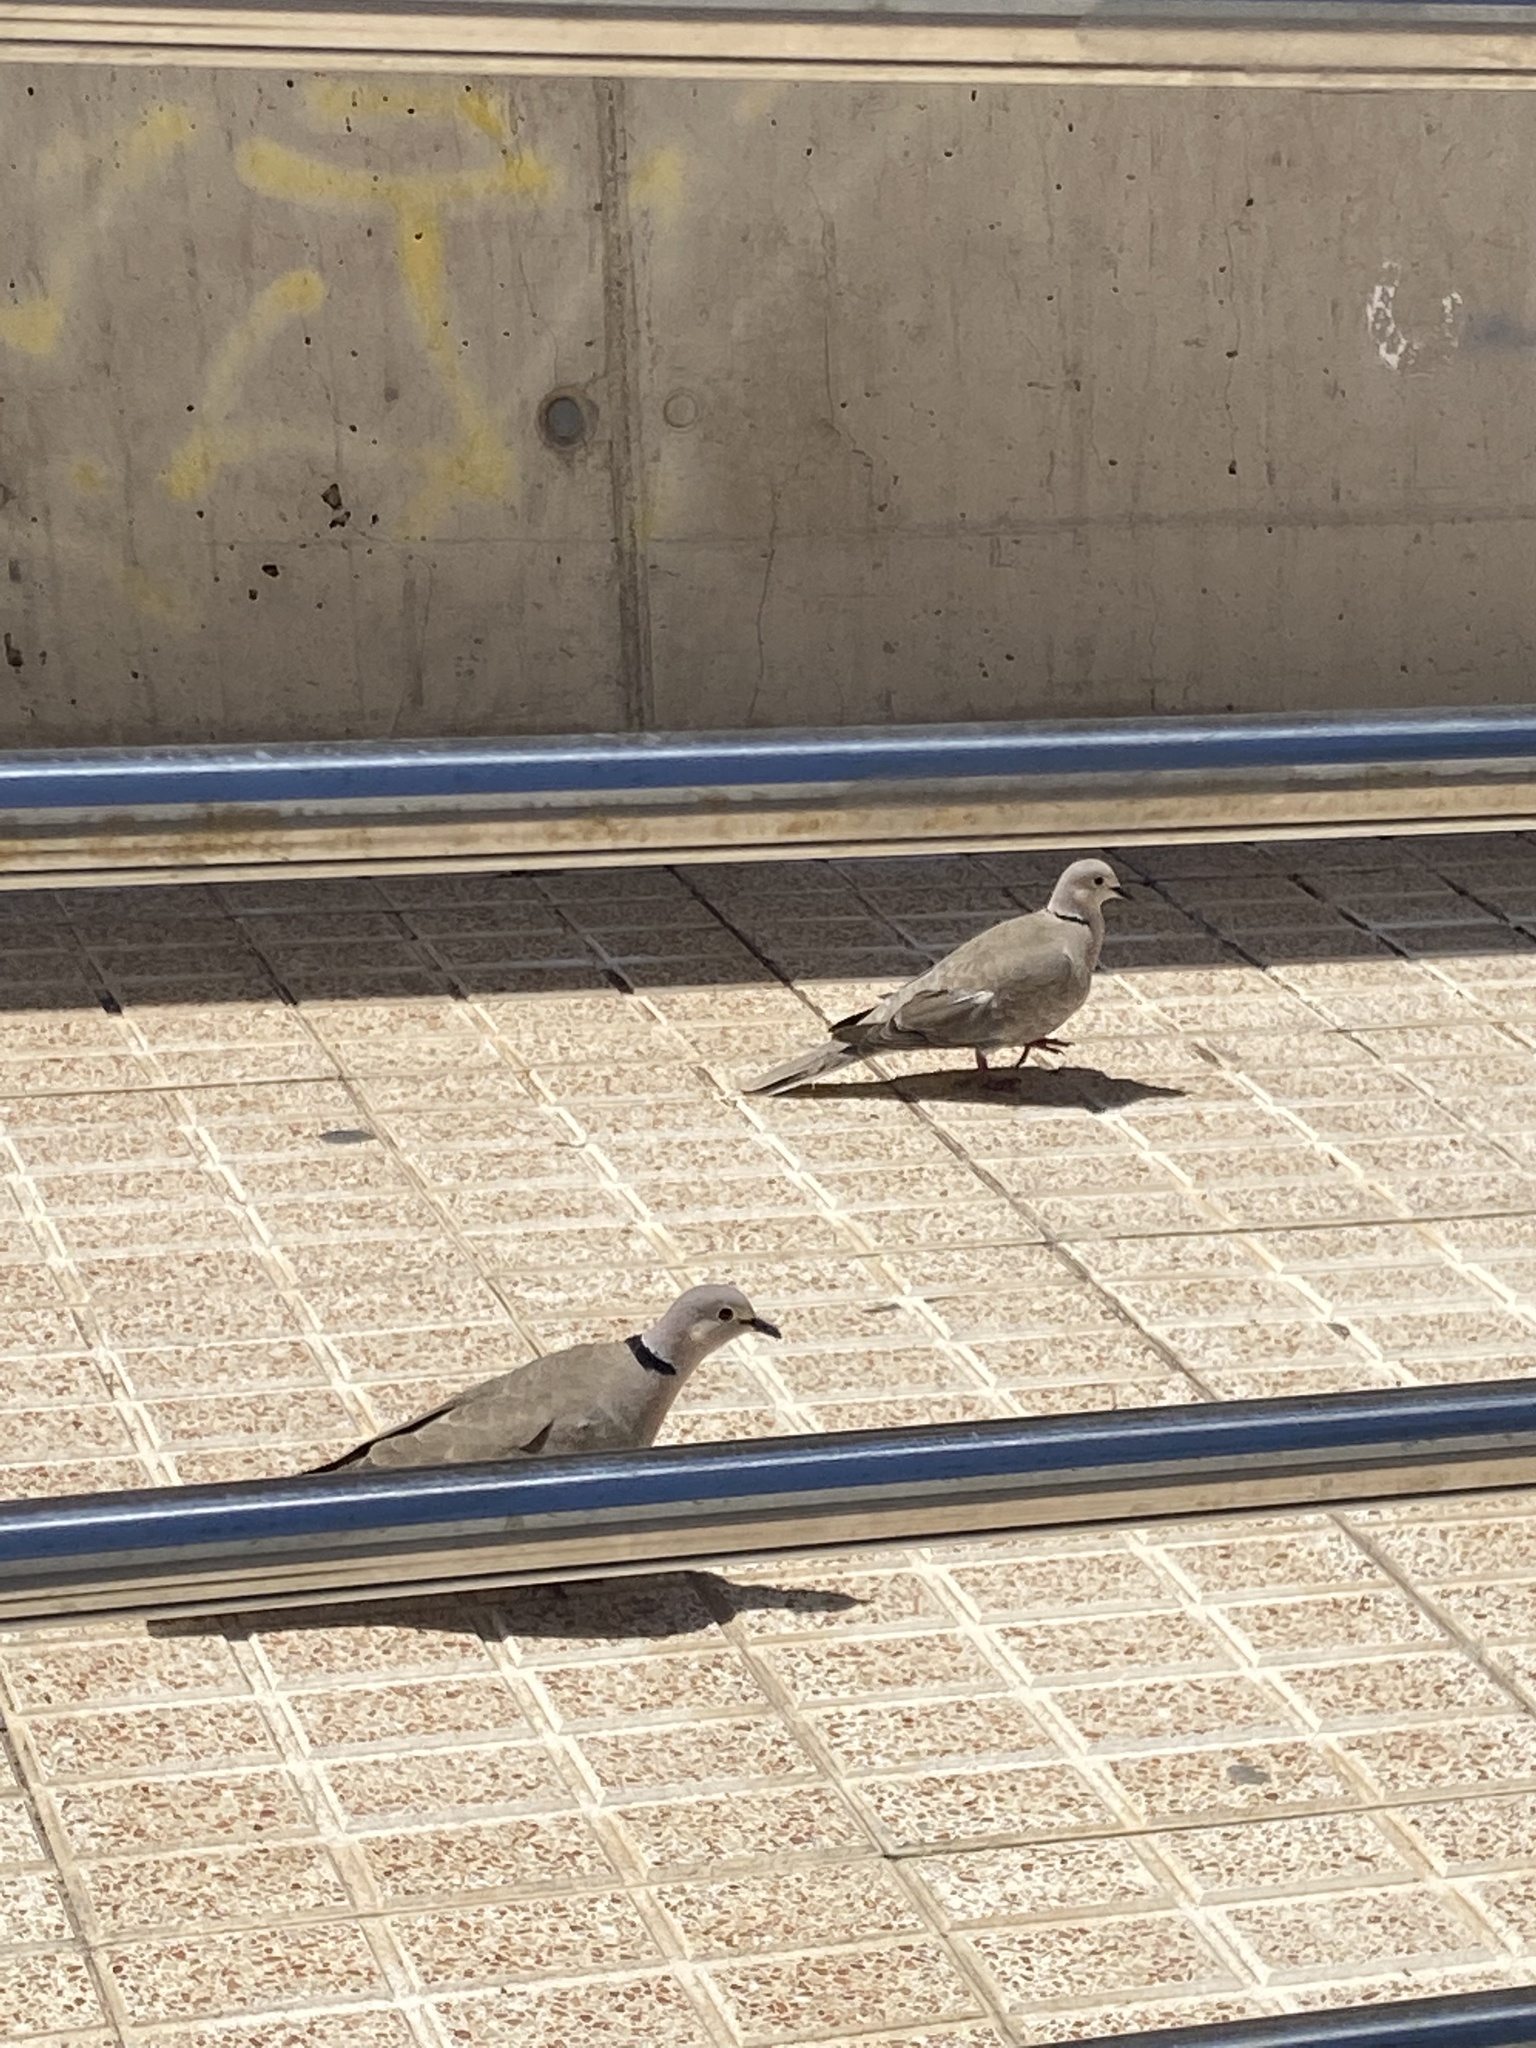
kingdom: Animalia
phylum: Chordata
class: Aves
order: Columbiformes
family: Columbidae
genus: Streptopelia
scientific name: Streptopelia decaocto
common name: Eurasian collared dove
